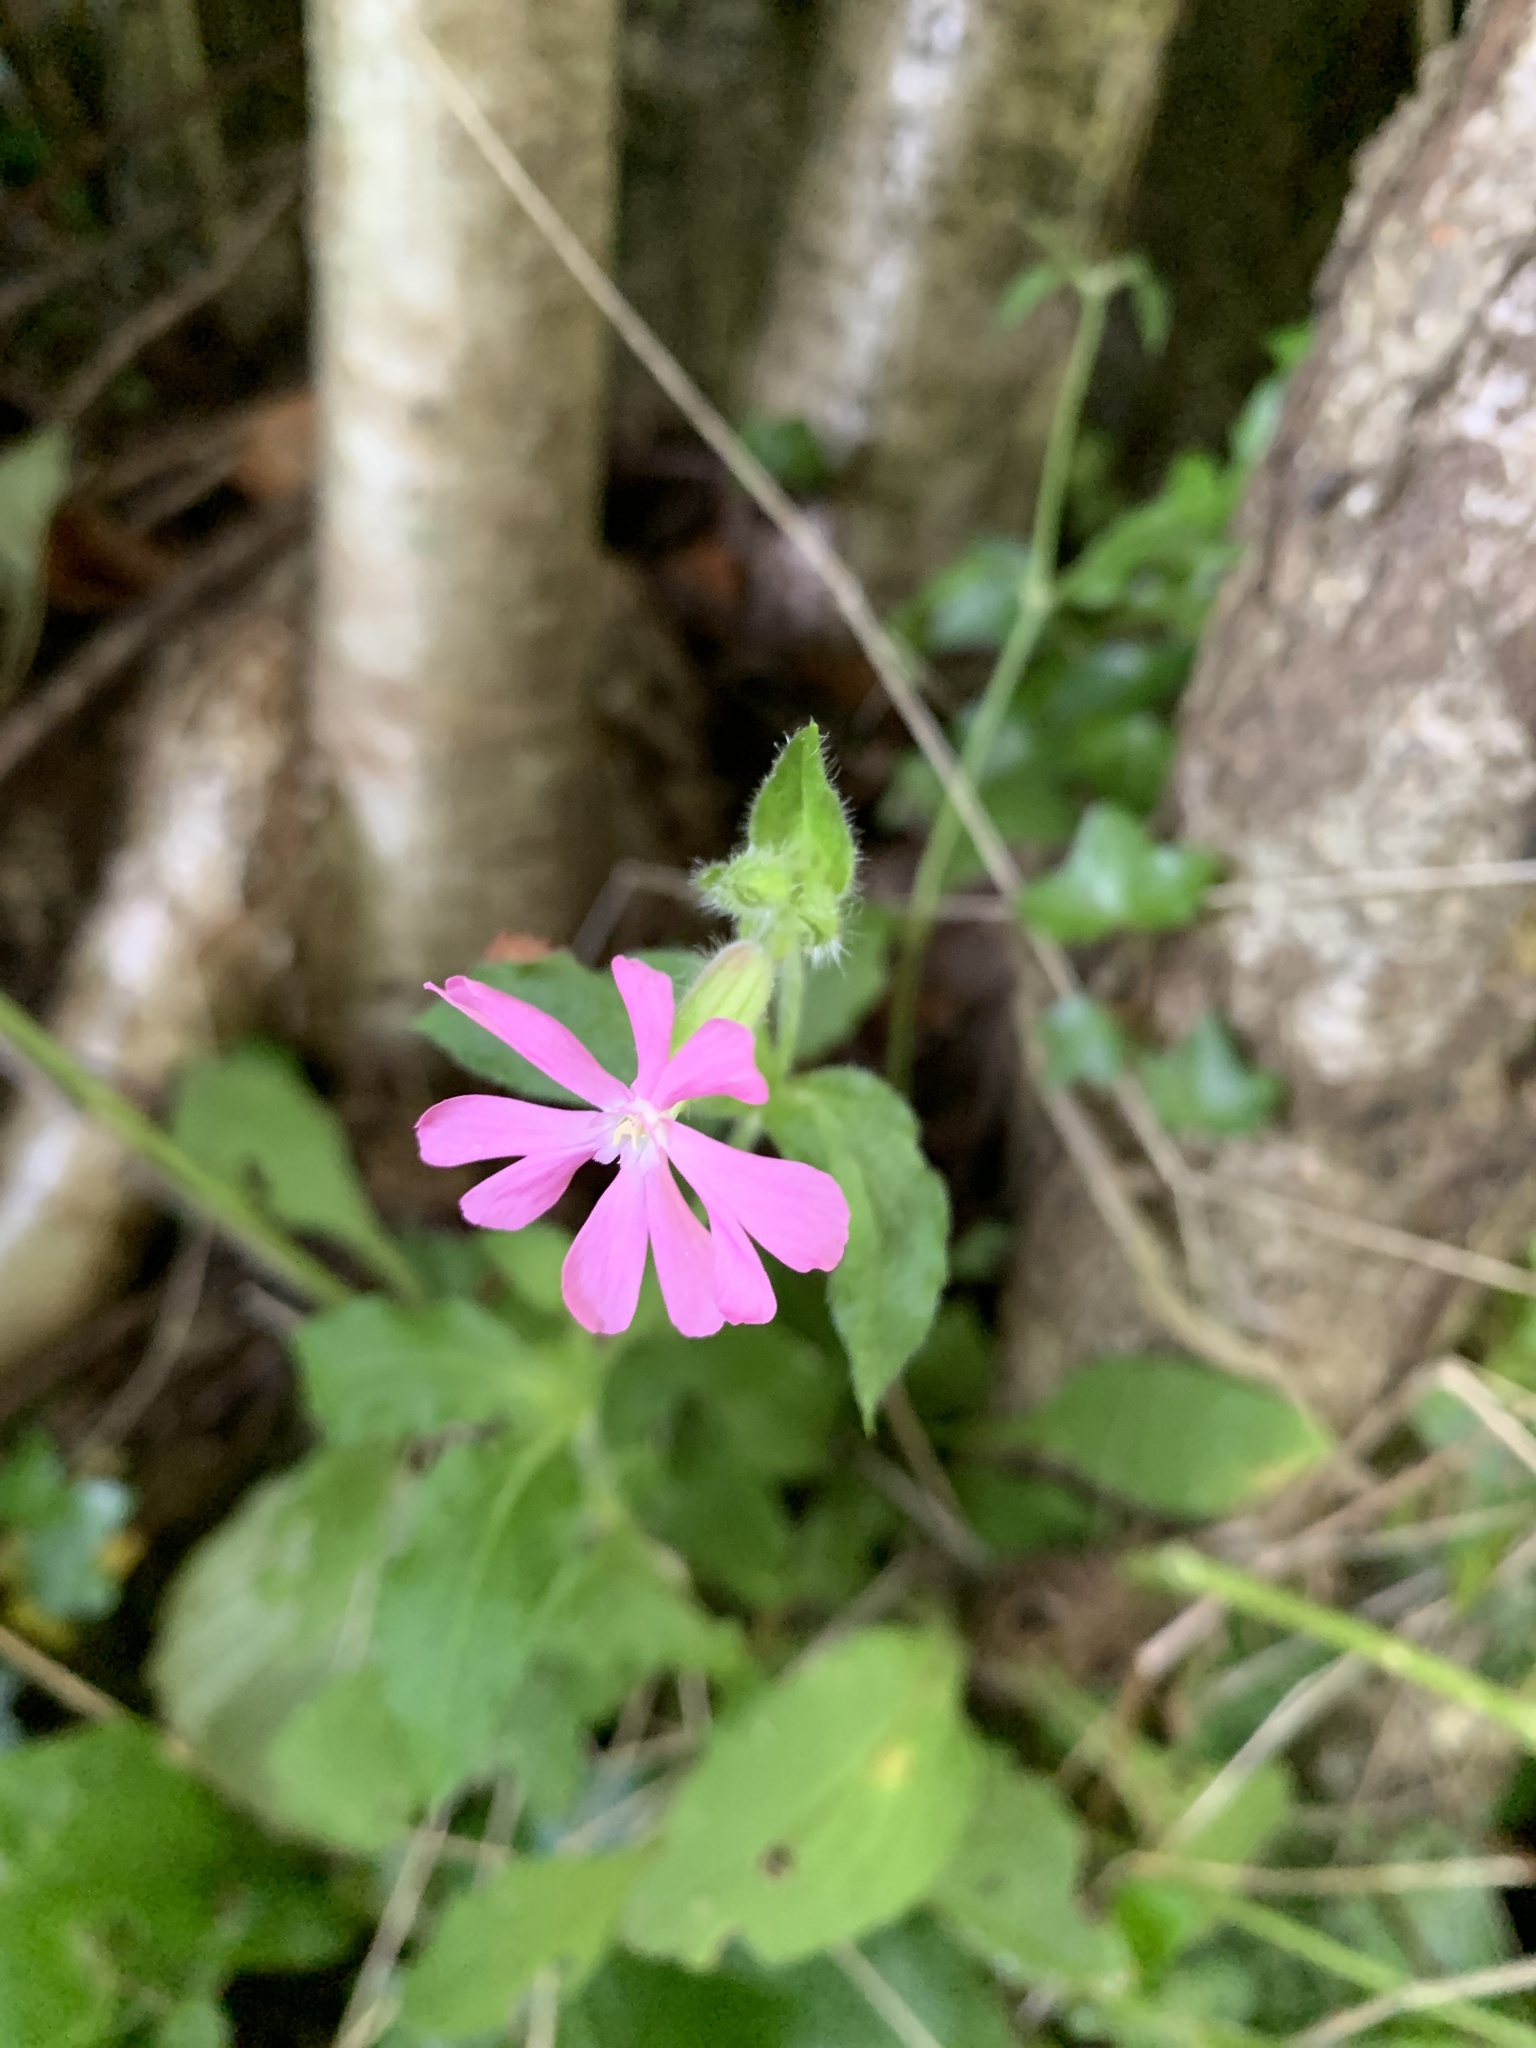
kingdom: Plantae
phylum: Tracheophyta
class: Magnoliopsida
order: Caryophyllales
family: Caryophyllaceae
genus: Silene
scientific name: Silene dioica
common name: Red campion
